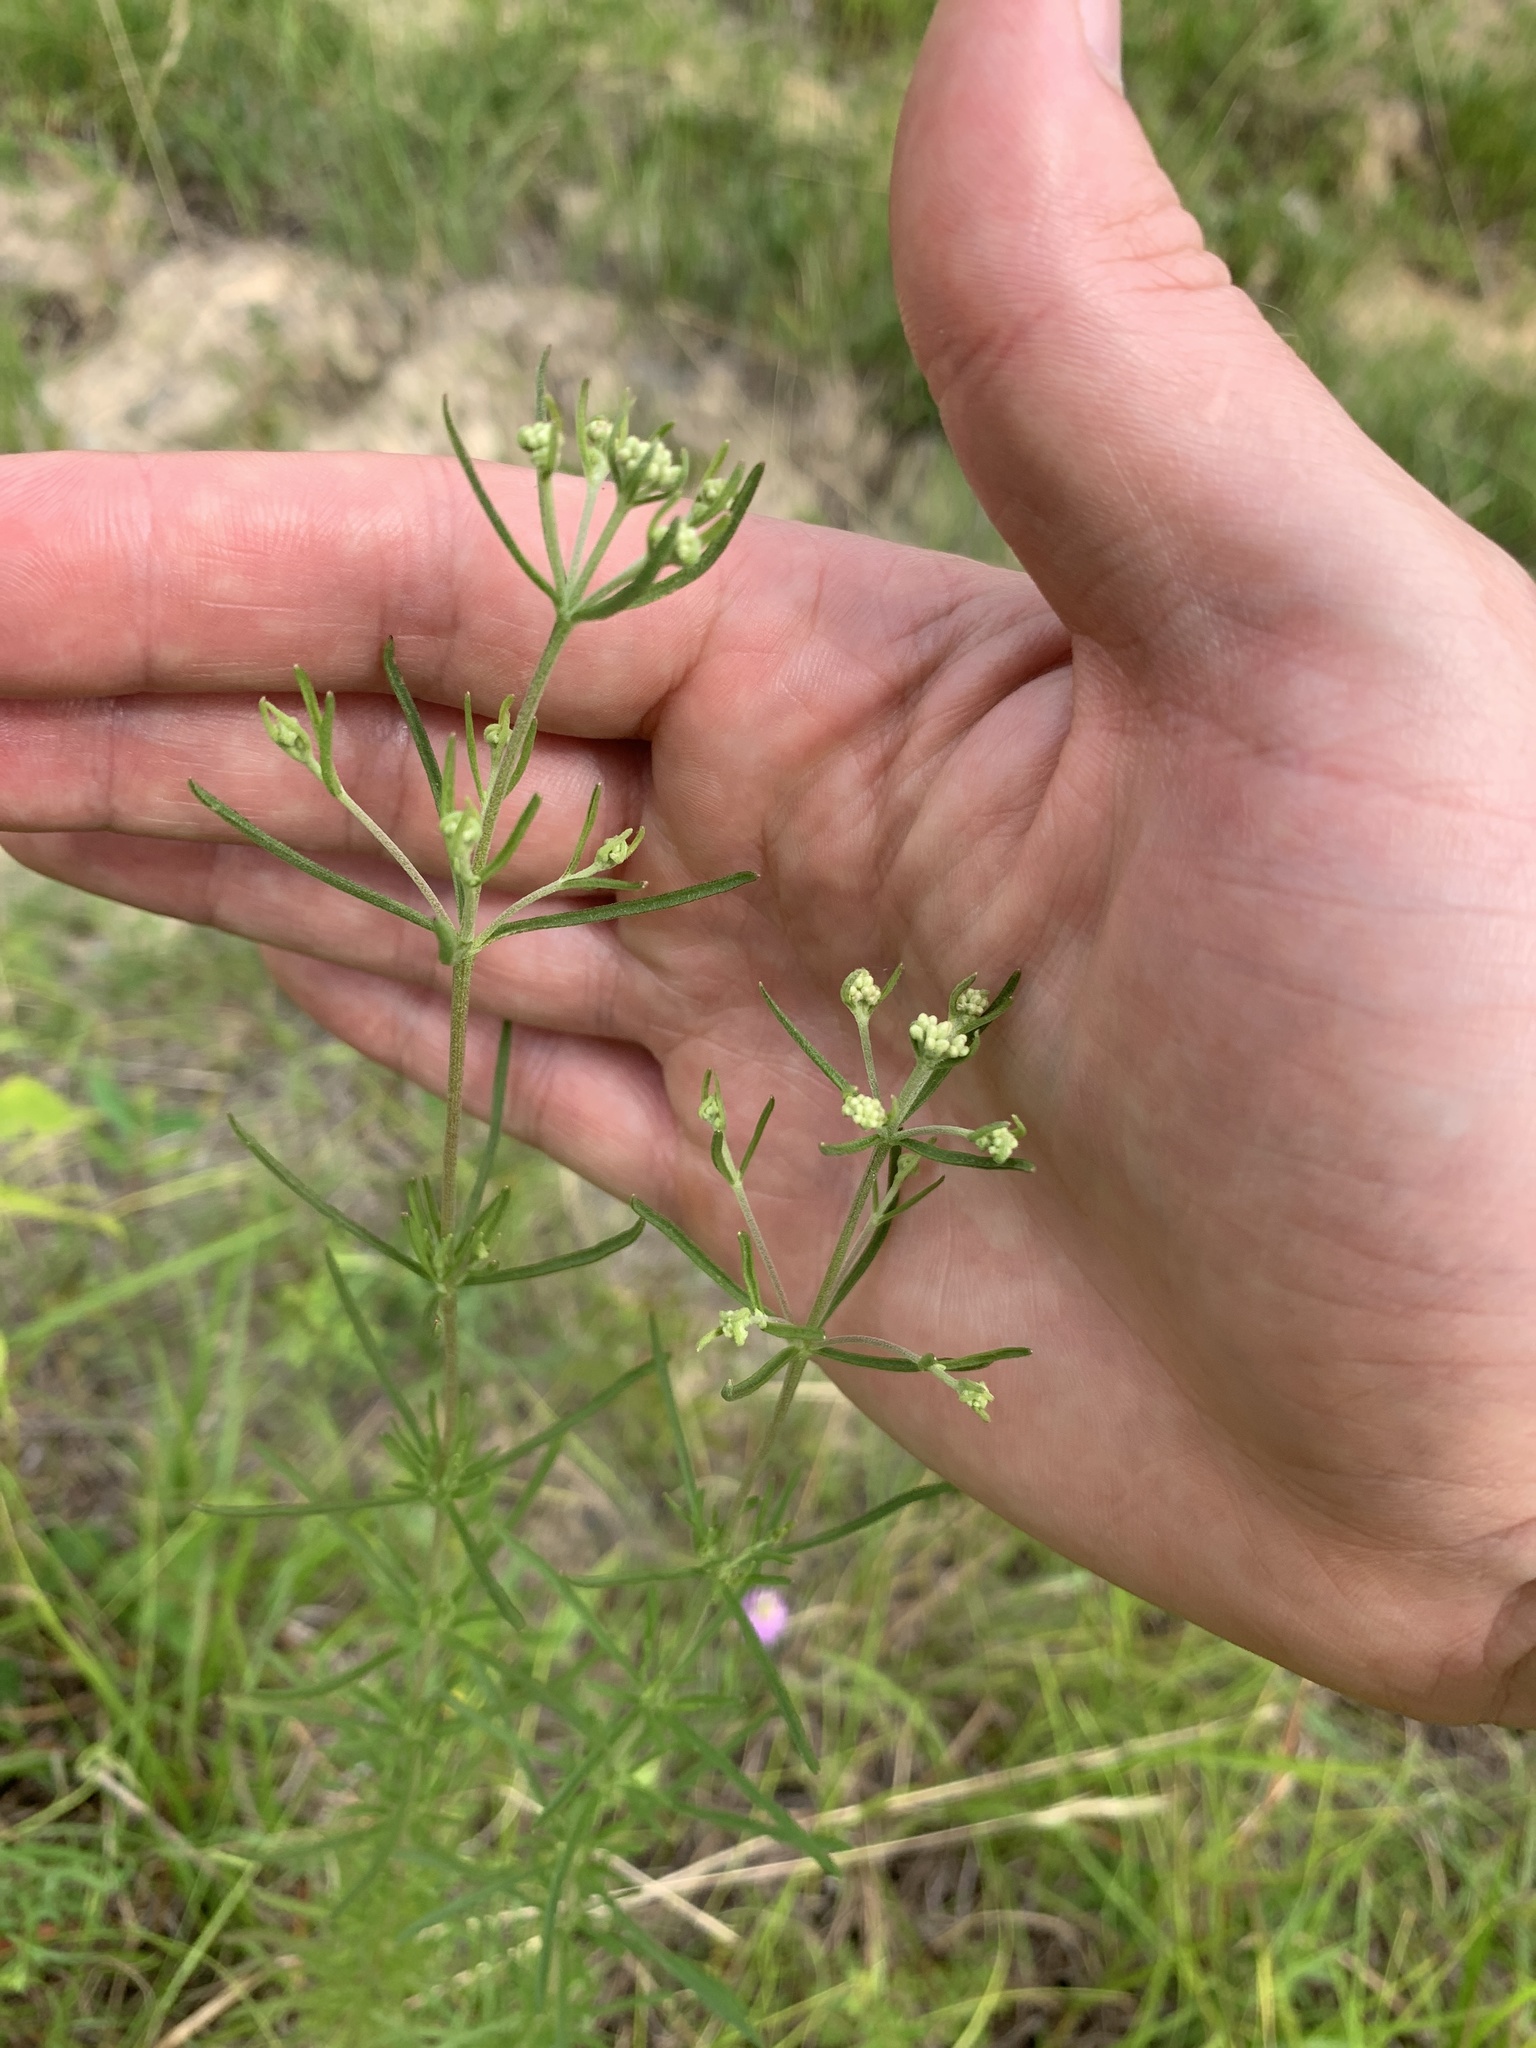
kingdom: Plantae
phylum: Tracheophyta
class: Magnoliopsida
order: Asterales
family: Asteraceae
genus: Eupatorium
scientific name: Eupatorium hyssopifolium
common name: Hyssop-leaf thoroughwort
